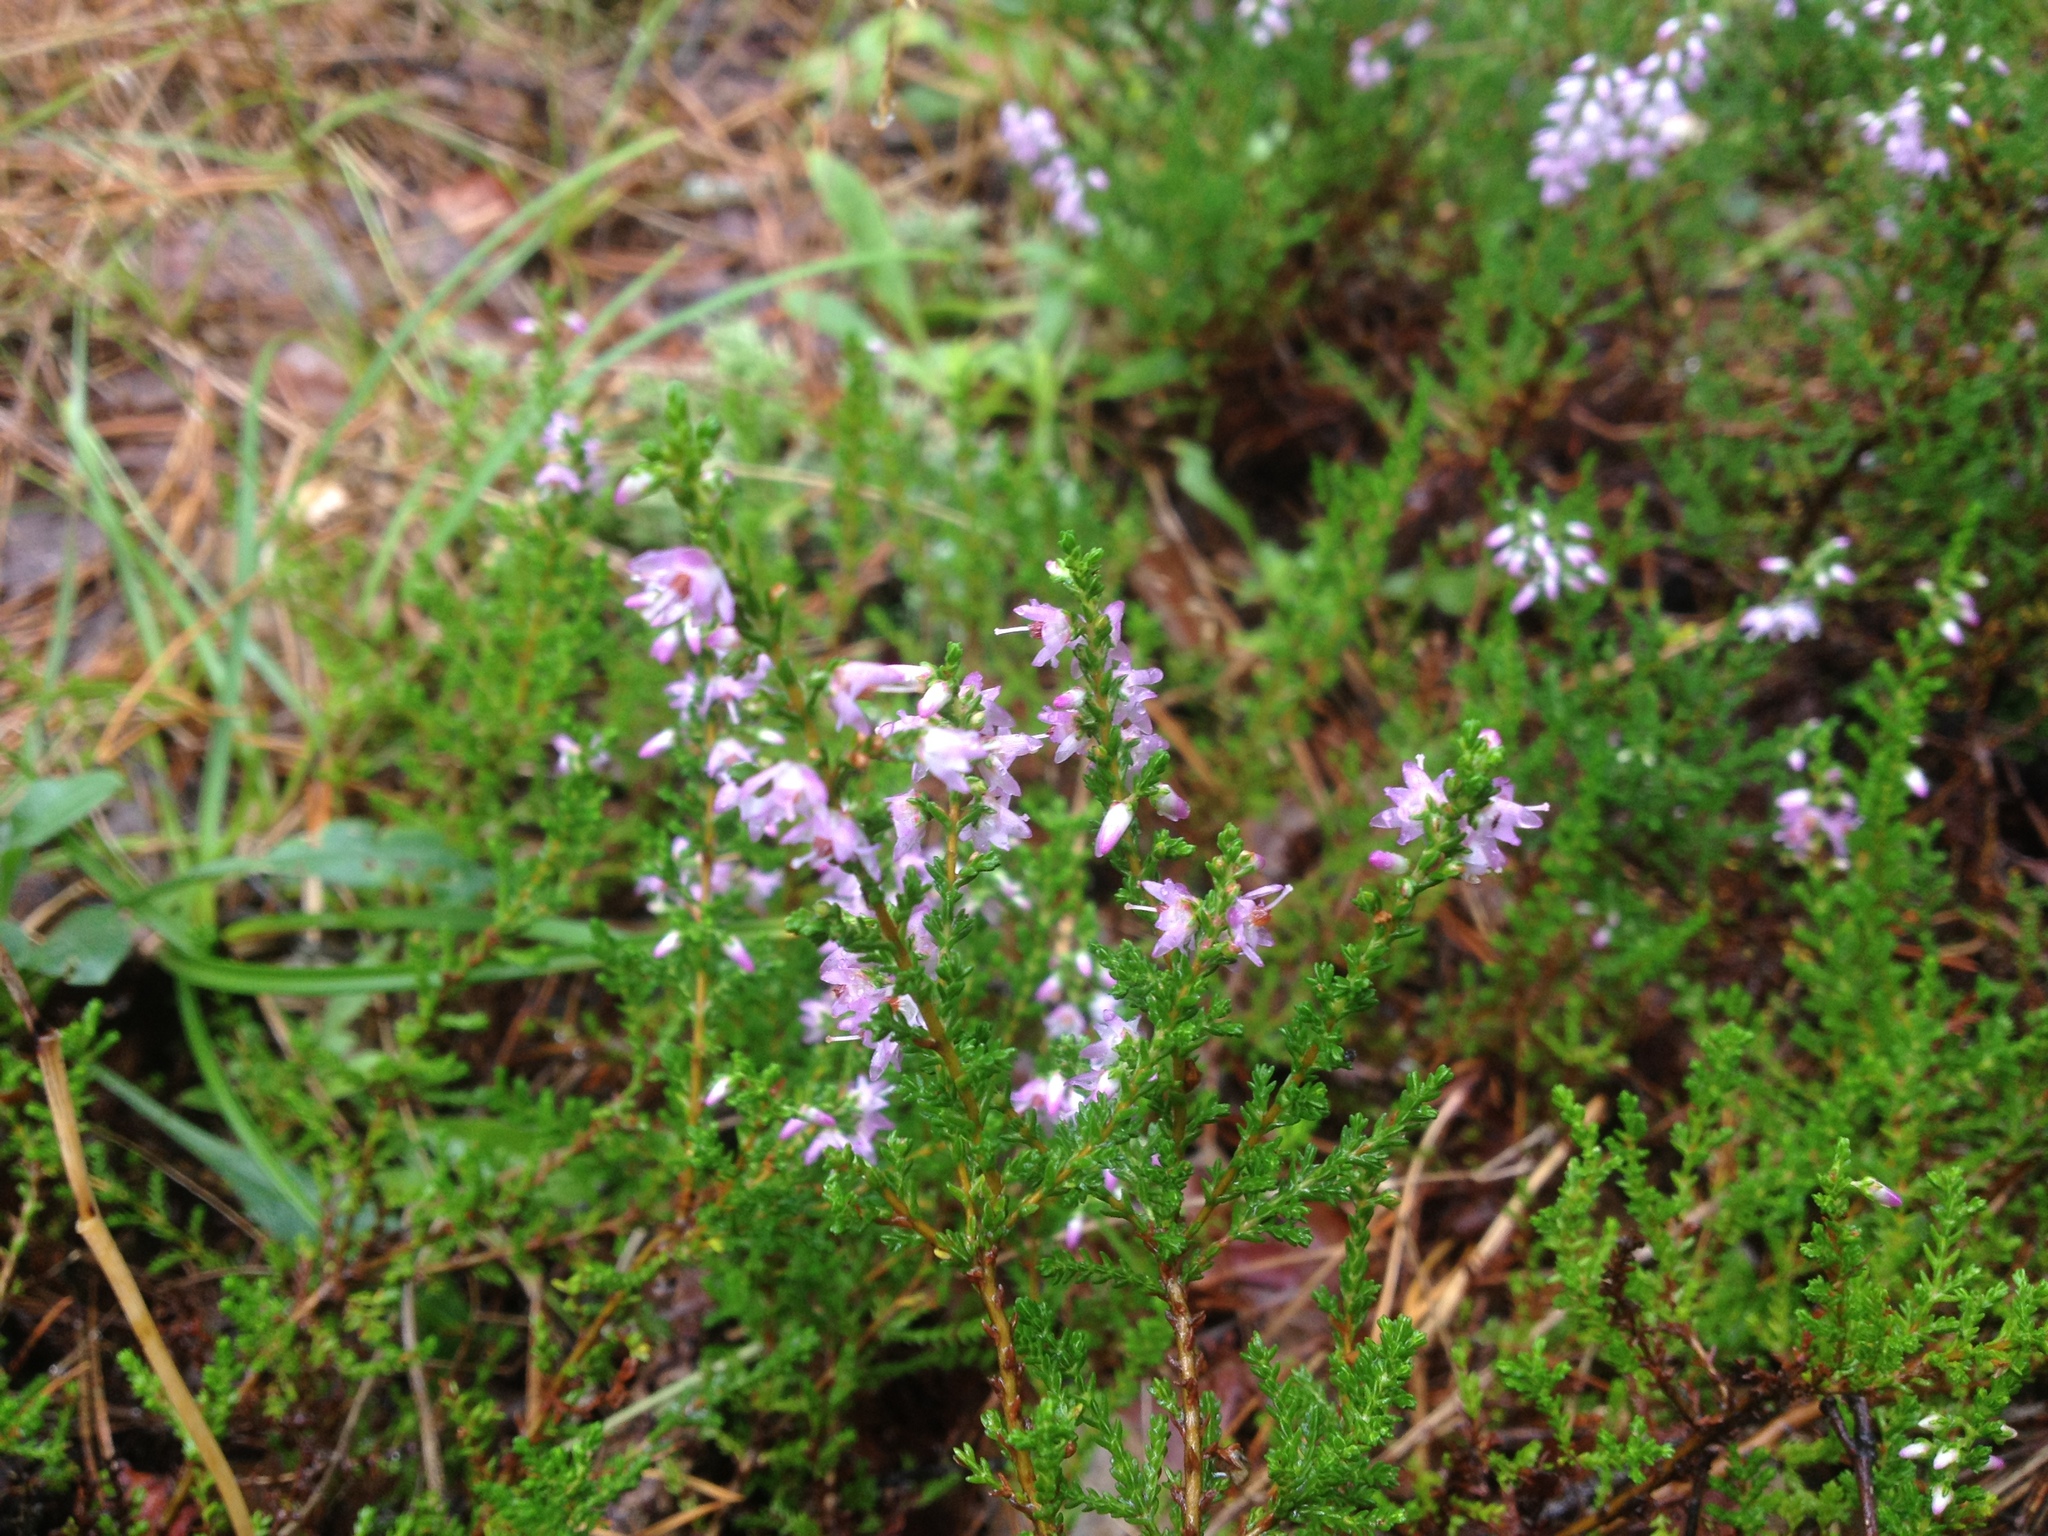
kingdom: Plantae
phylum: Tracheophyta
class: Magnoliopsida
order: Ericales
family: Ericaceae
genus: Calluna
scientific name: Calluna vulgaris
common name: Heather
